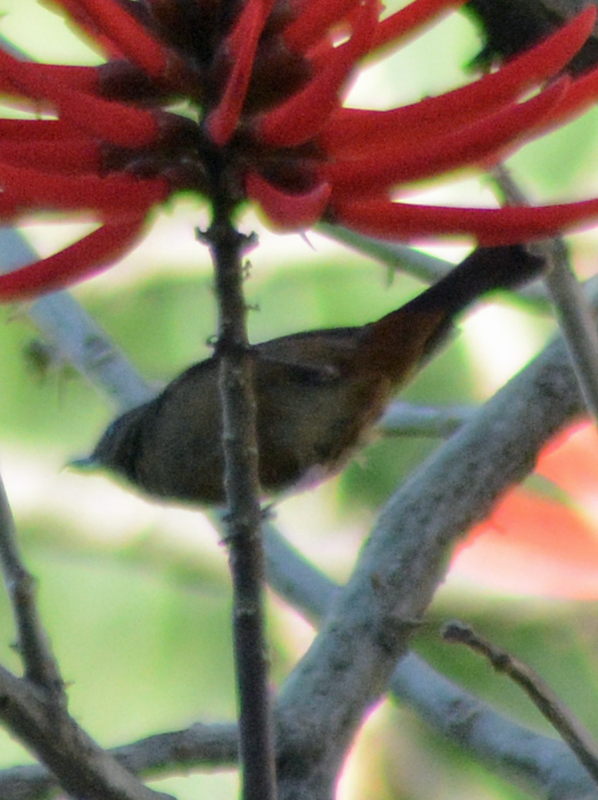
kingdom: Animalia
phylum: Chordata
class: Aves
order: Passeriformes
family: Thraupidae
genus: Diglossa
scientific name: Diglossa baritula
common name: Cinnamon-bellied flowerpiercer
